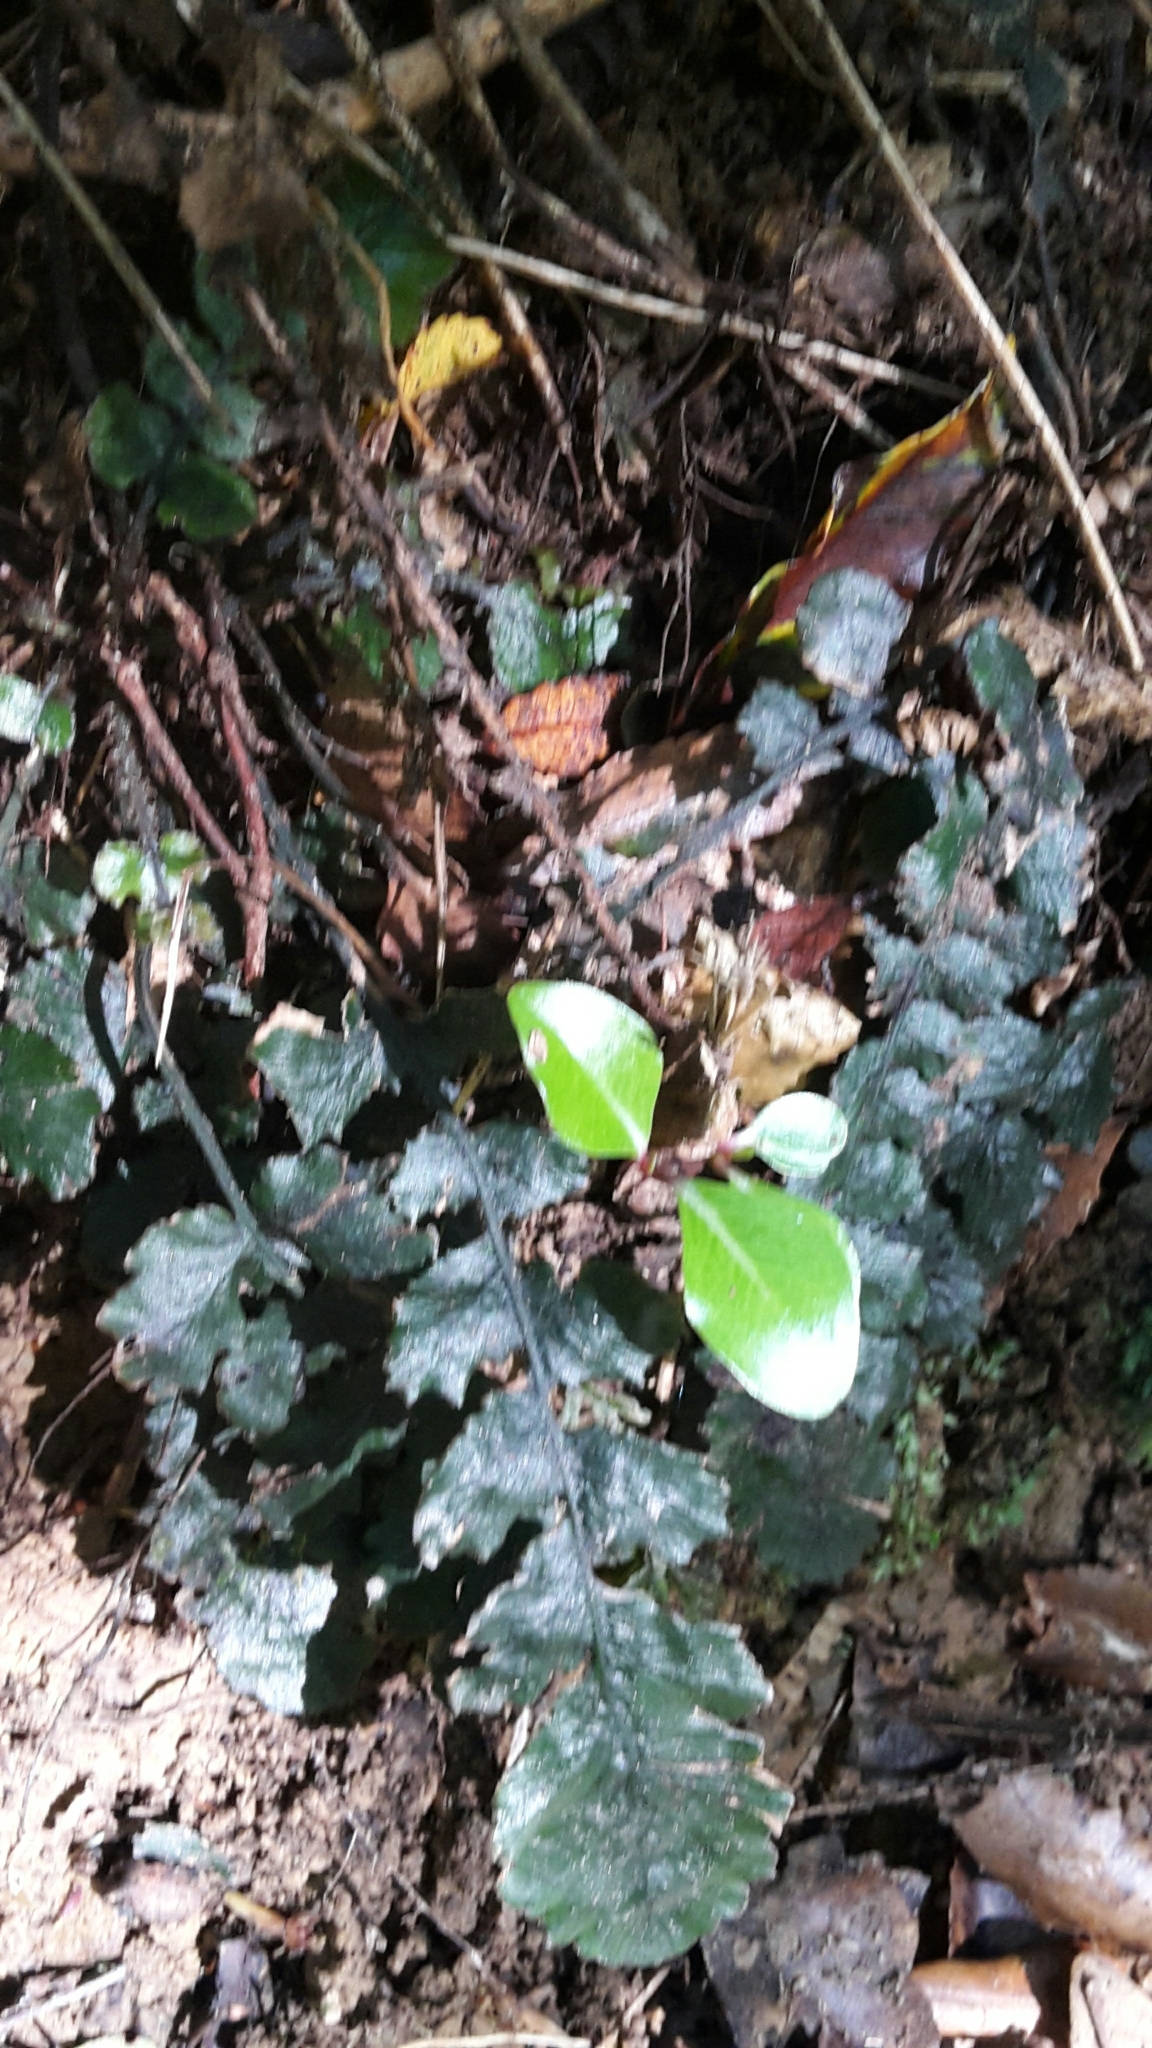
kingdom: Plantae
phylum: Tracheophyta
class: Polypodiopsida
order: Polypodiales
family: Blechnaceae
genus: Cranfillia
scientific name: Cranfillia nigra
